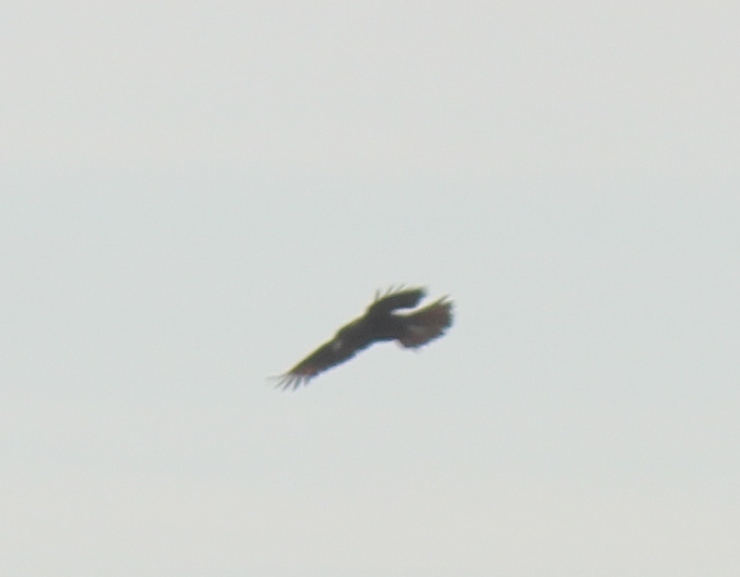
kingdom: Animalia
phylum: Chordata
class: Aves
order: Falconiformes
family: Falconidae
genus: Daptrius
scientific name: Daptrius
